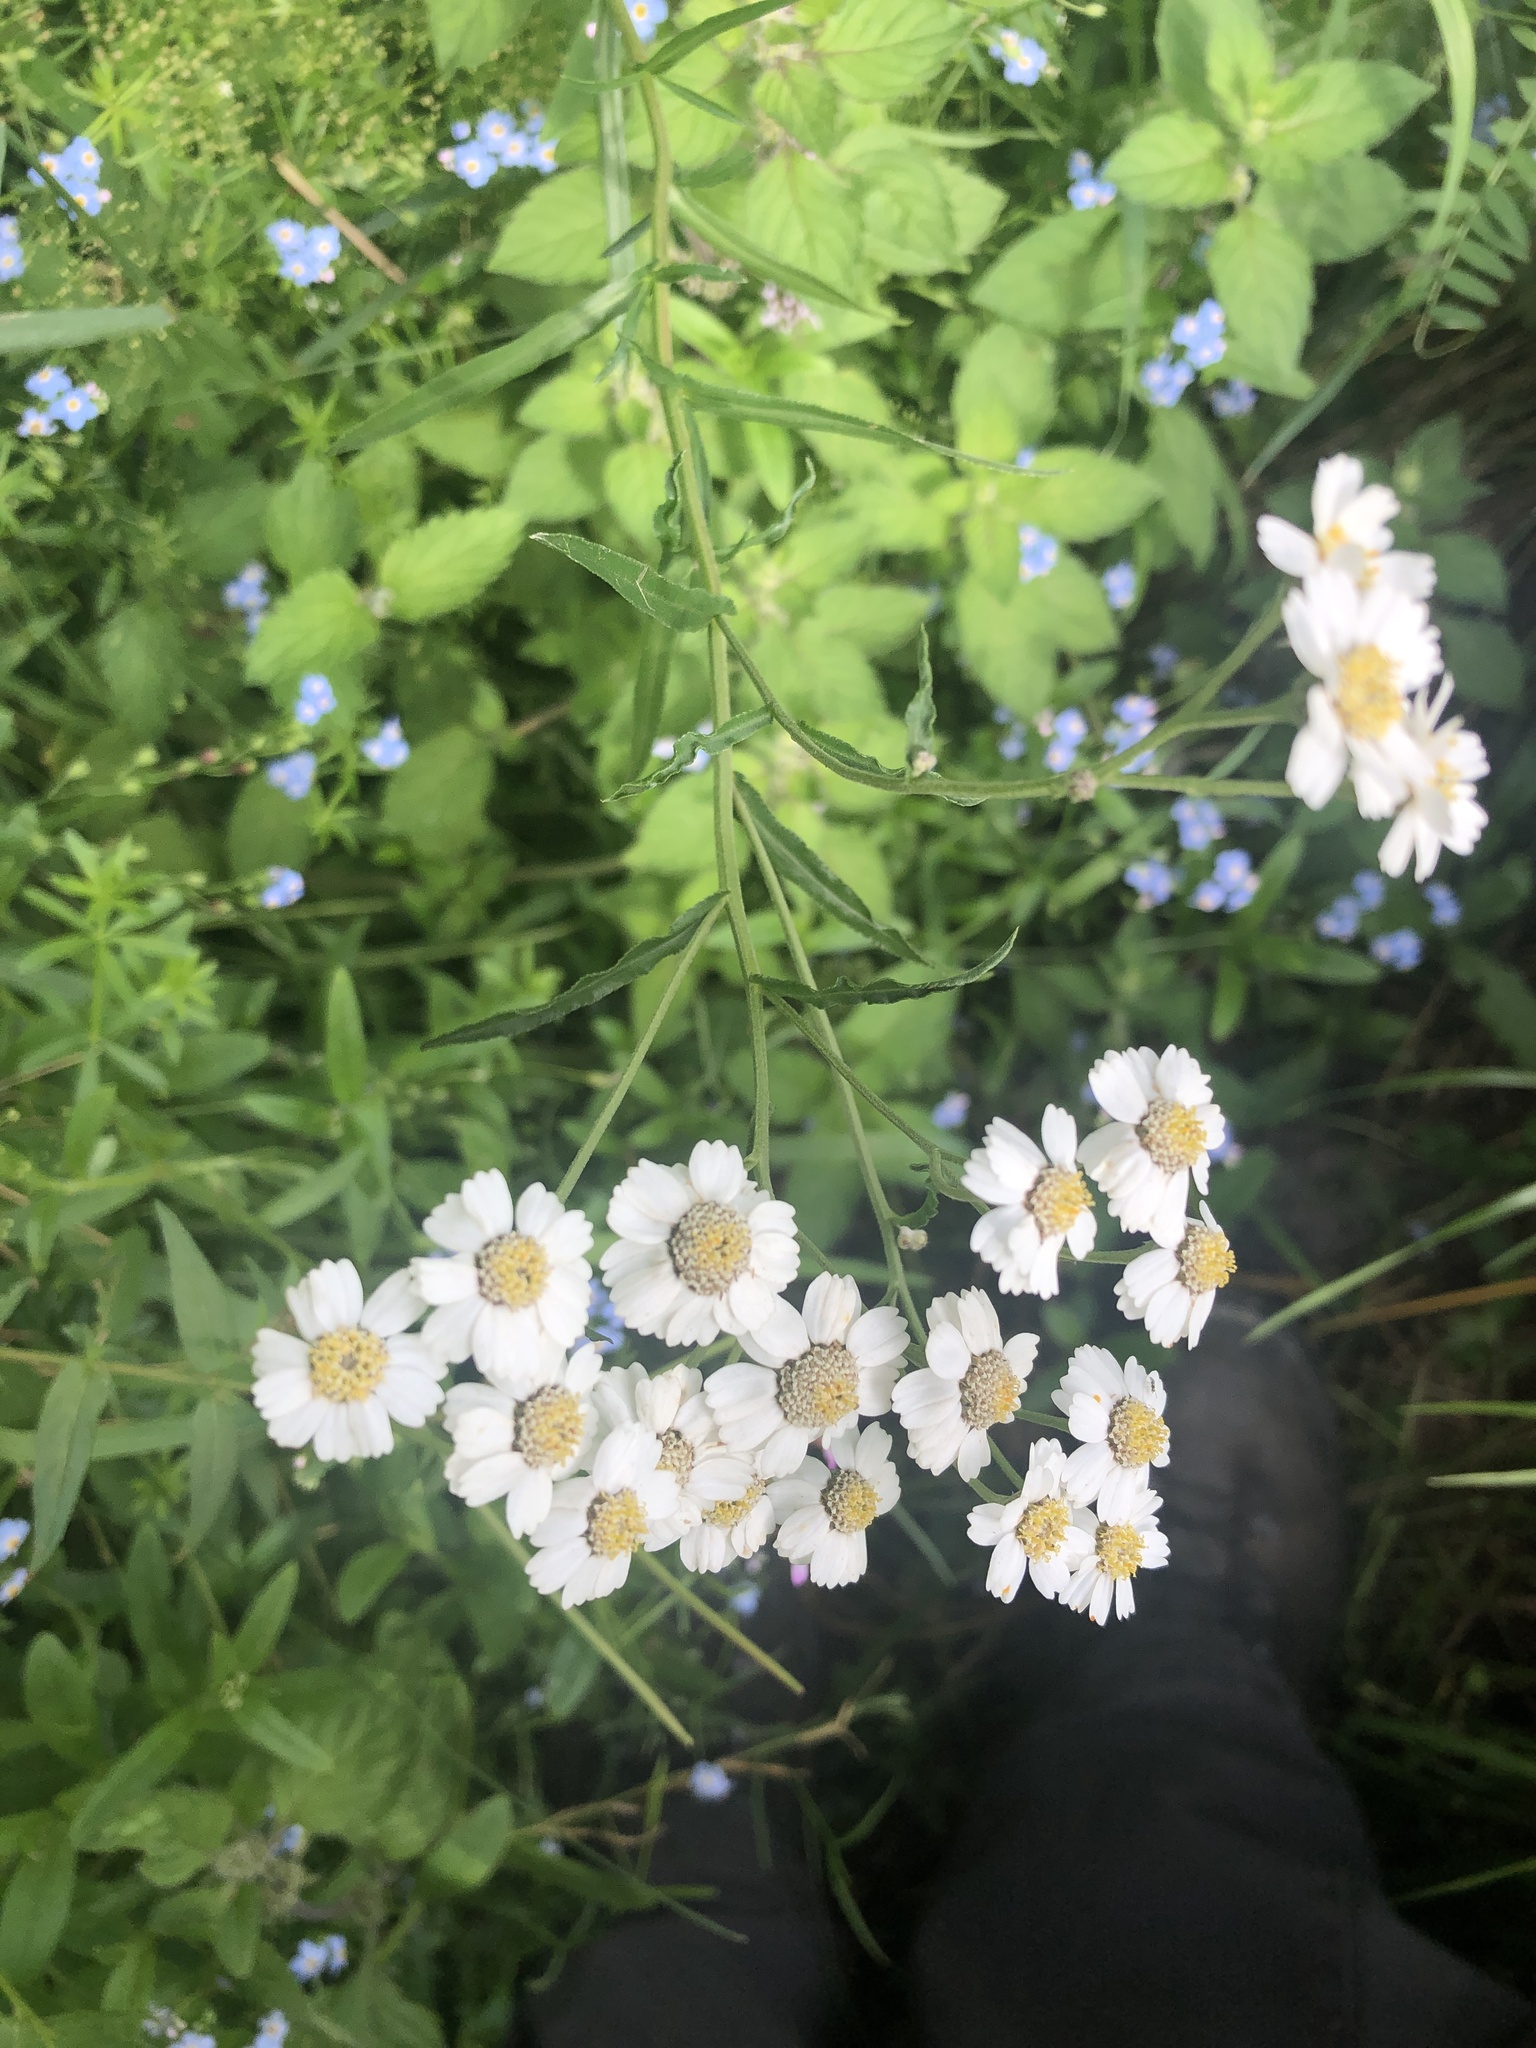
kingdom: Plantae
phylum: Tracheophyta
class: Magnoliopsida
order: Asterales
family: Asteraceae
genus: Achillea
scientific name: Achillea ptarmica
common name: Sneezeweed
